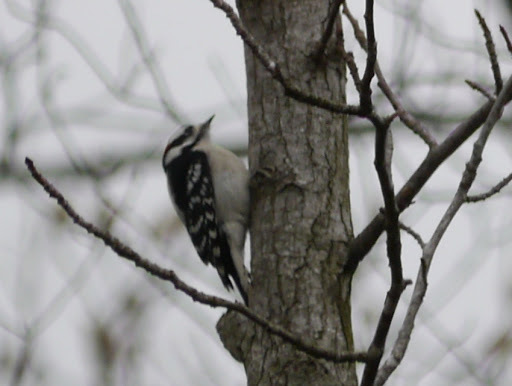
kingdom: Animalia
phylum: Chordata
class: Aves
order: Piciformes
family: Picidae
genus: Dryobates
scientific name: Dryobates pubescens
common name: Downy woodpecker
